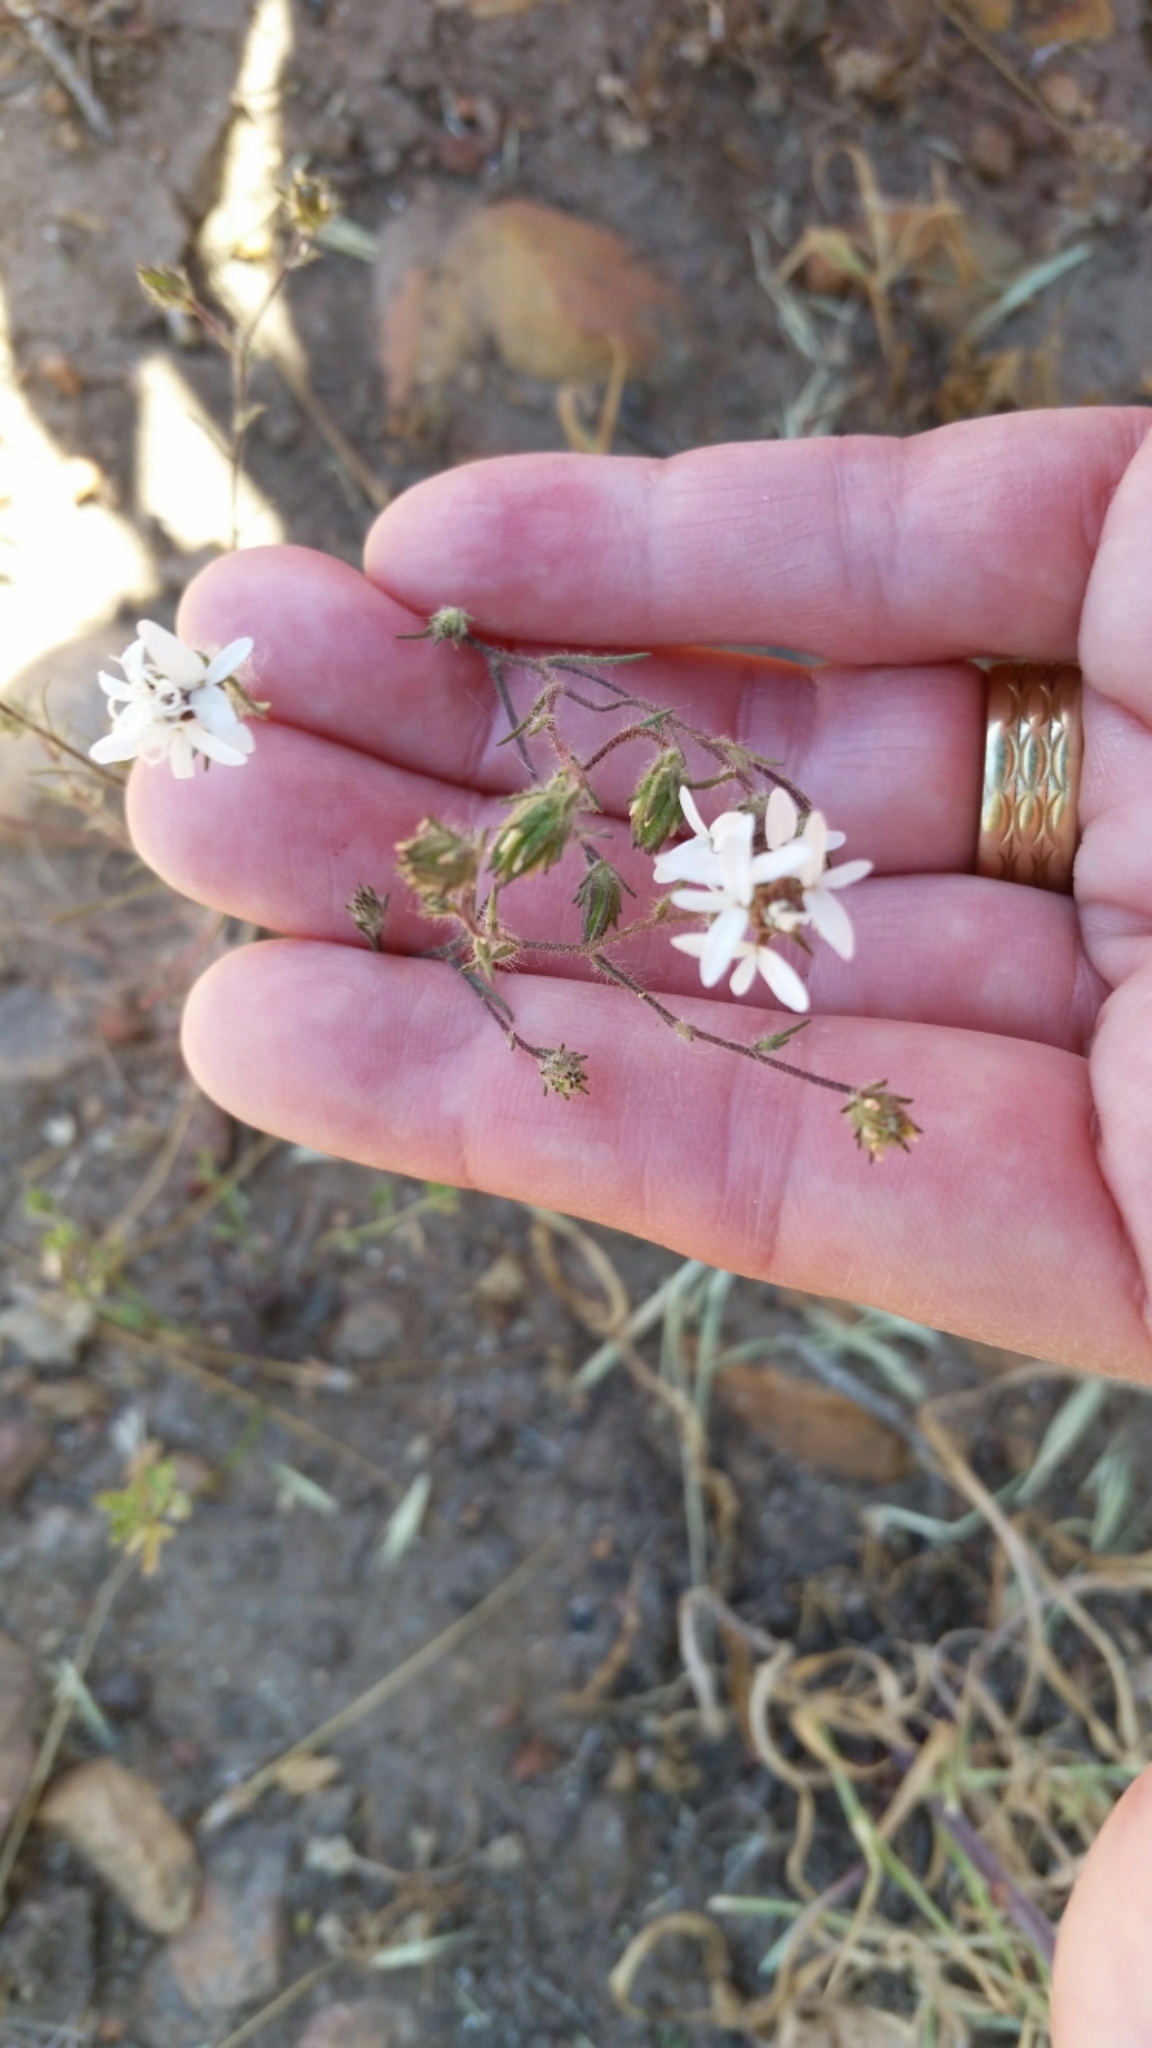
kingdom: Plantae
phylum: Tracheophyta
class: Magnoliopsida
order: Asterales
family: Asteraceae
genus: Osmadenia
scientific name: Osmadenia tenella
